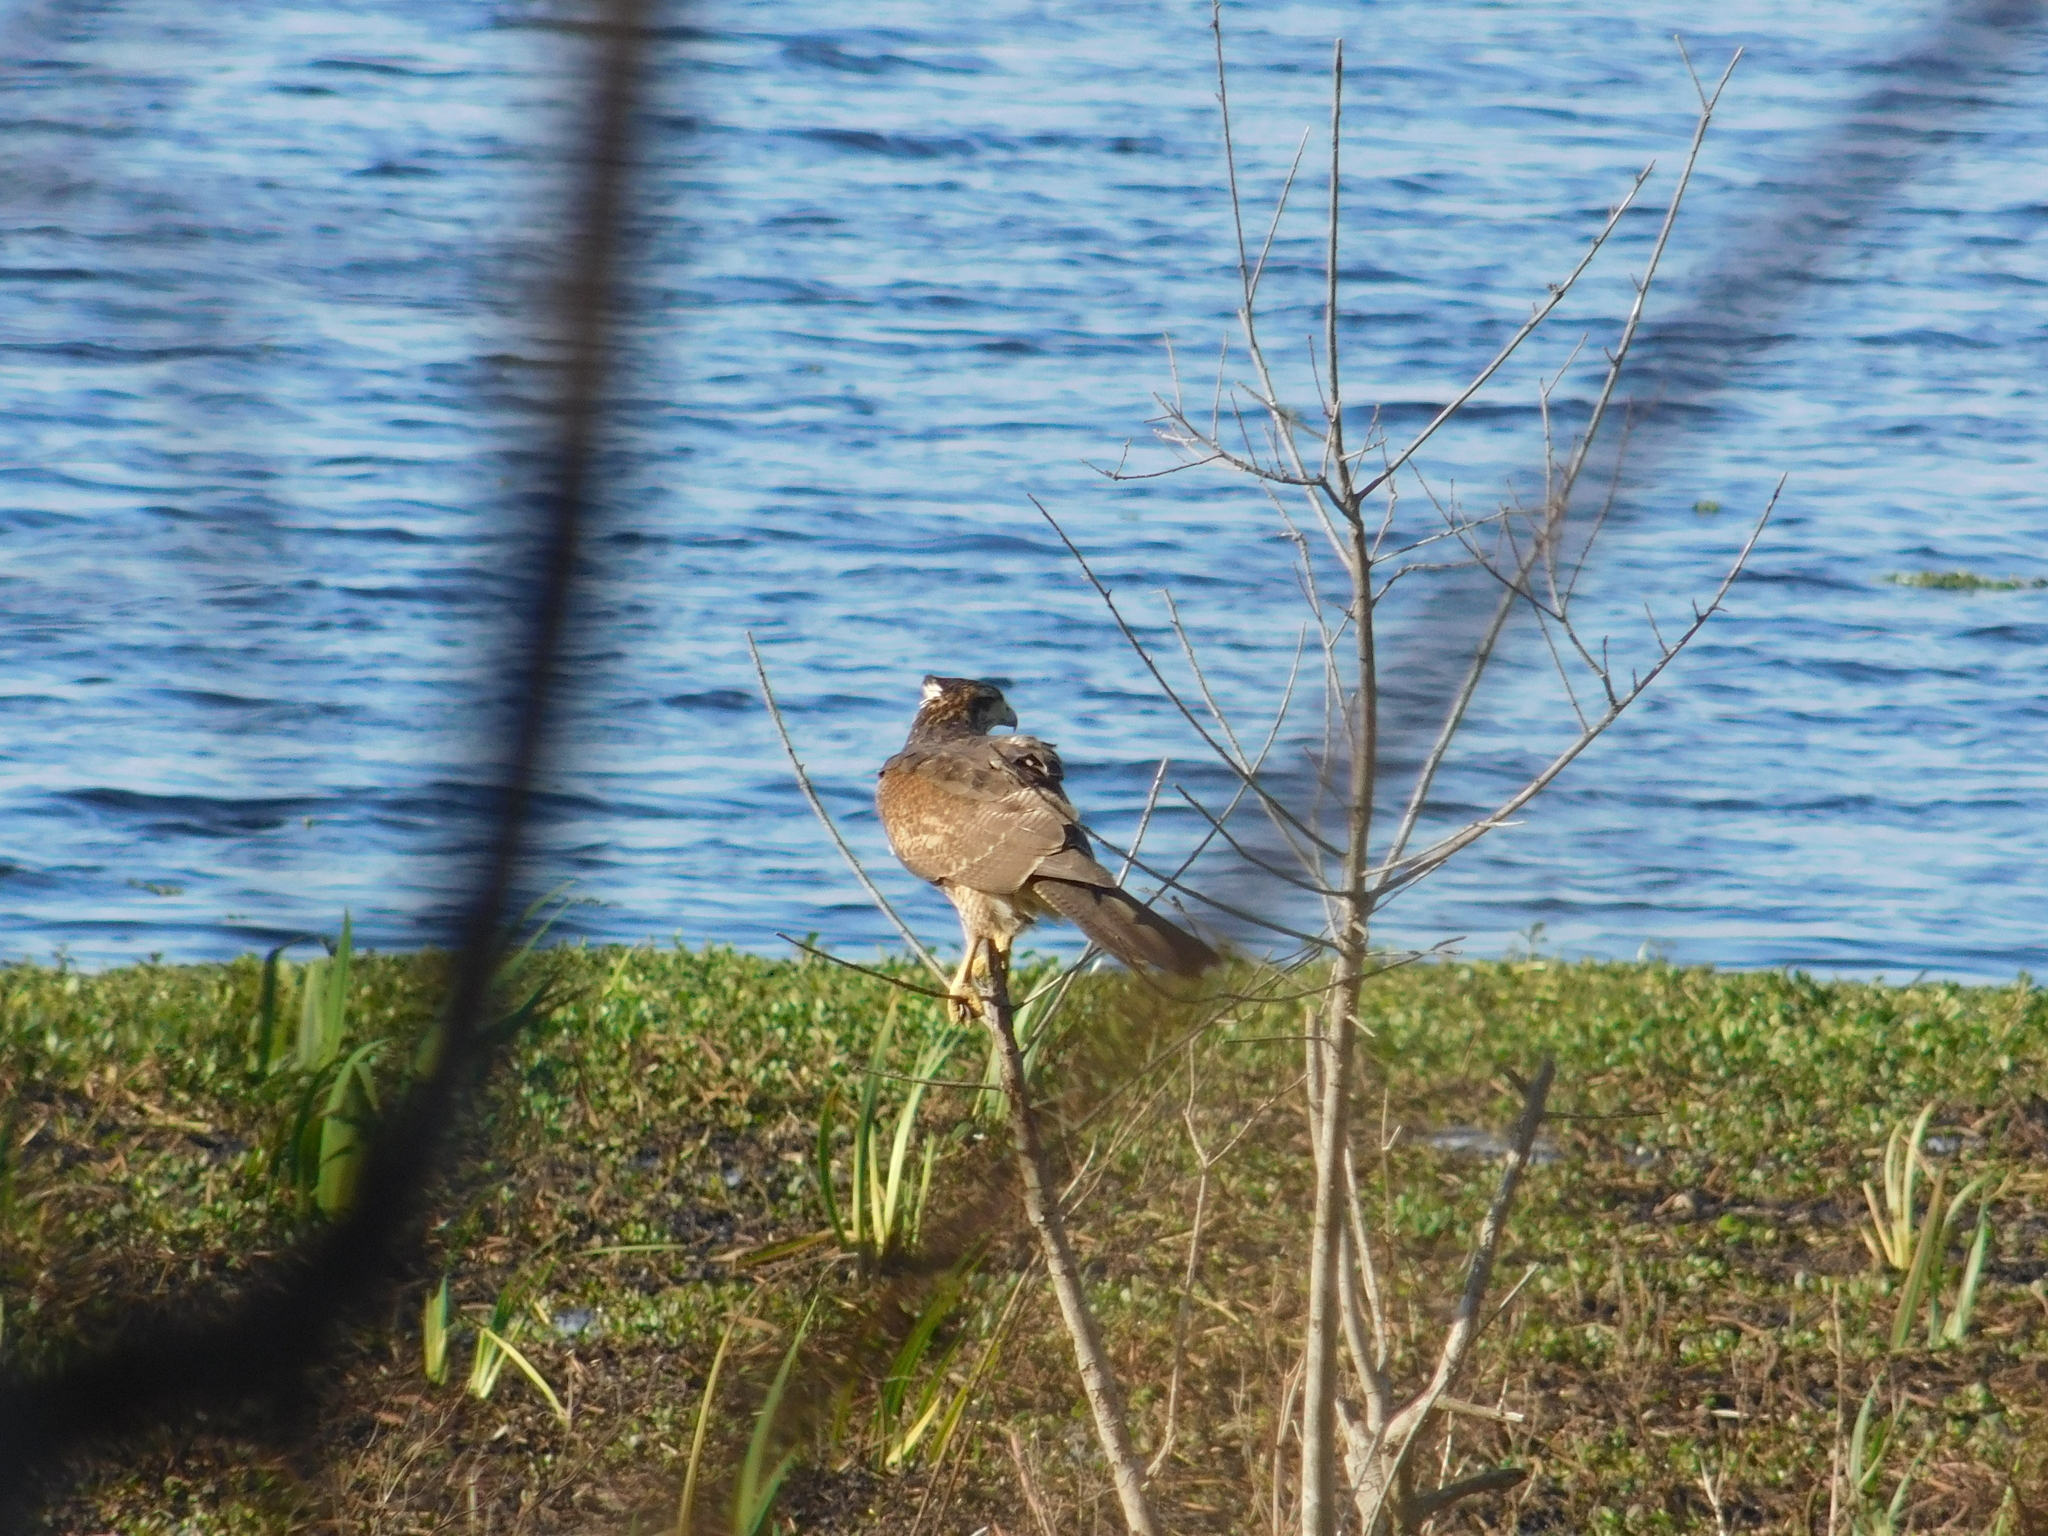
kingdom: Animalia
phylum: Chordata
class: Aves
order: Accipitriformes
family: Accipitridae
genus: Parabuteo
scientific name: Parabuteo unicinctus
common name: Harris's hawk
